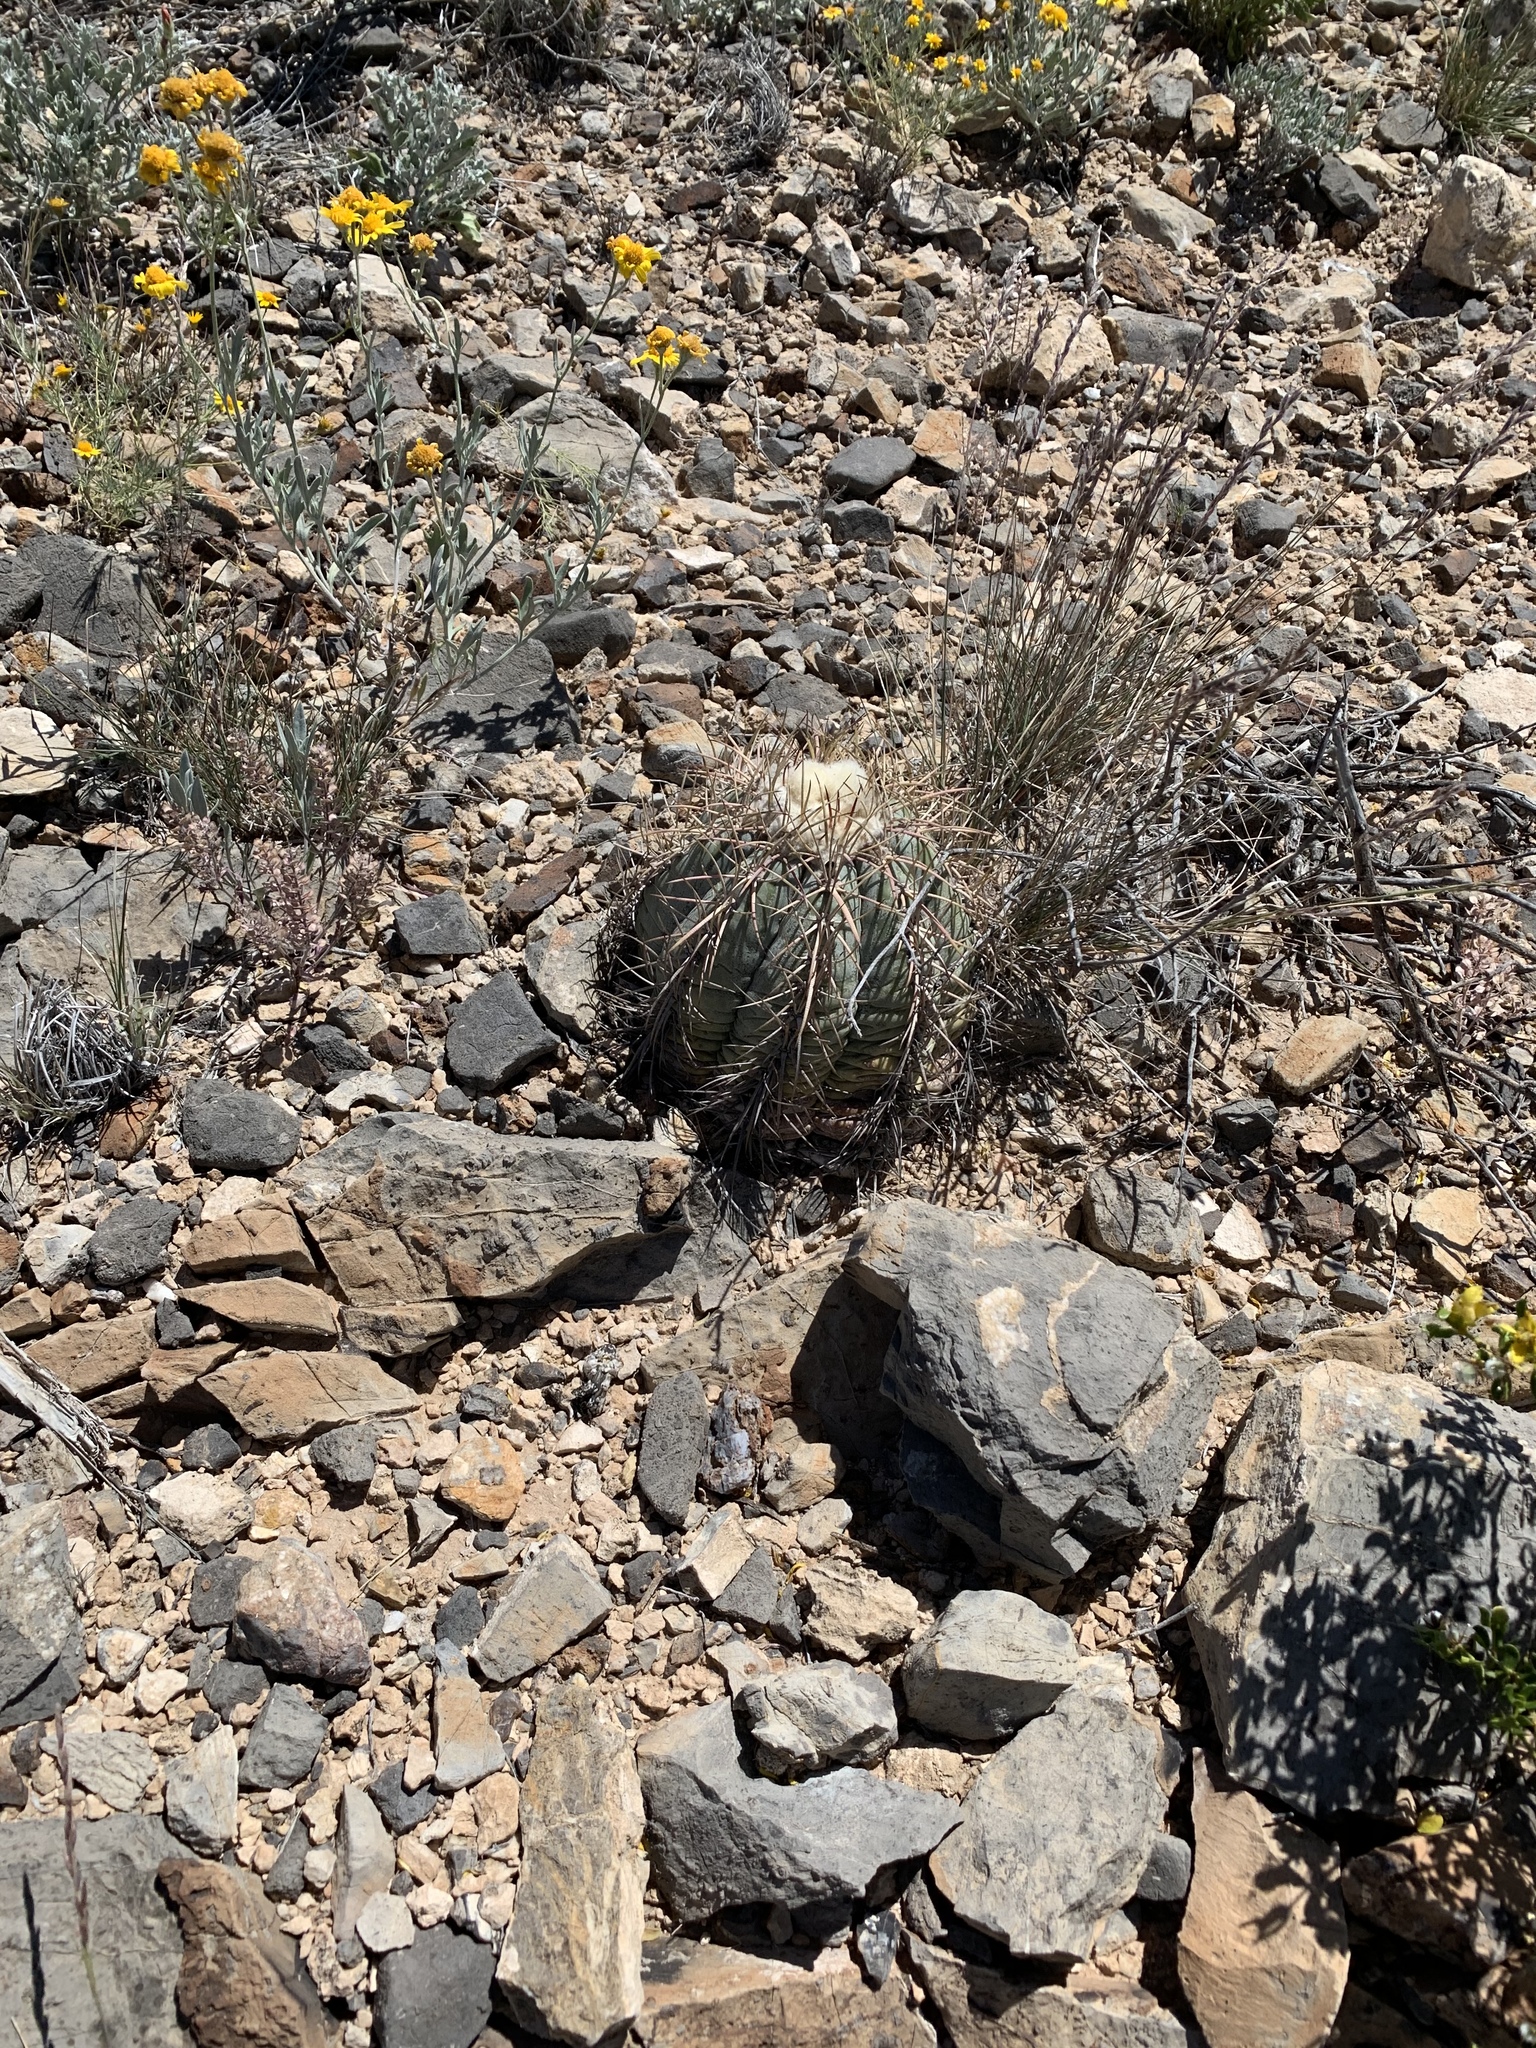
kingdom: Plantae
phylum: Tracheophyta
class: Magnoliopsida
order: Caryophyllales
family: Cactaceae
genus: Echinocactus
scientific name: Echinocactus horizonthalonius
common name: Devilshead
